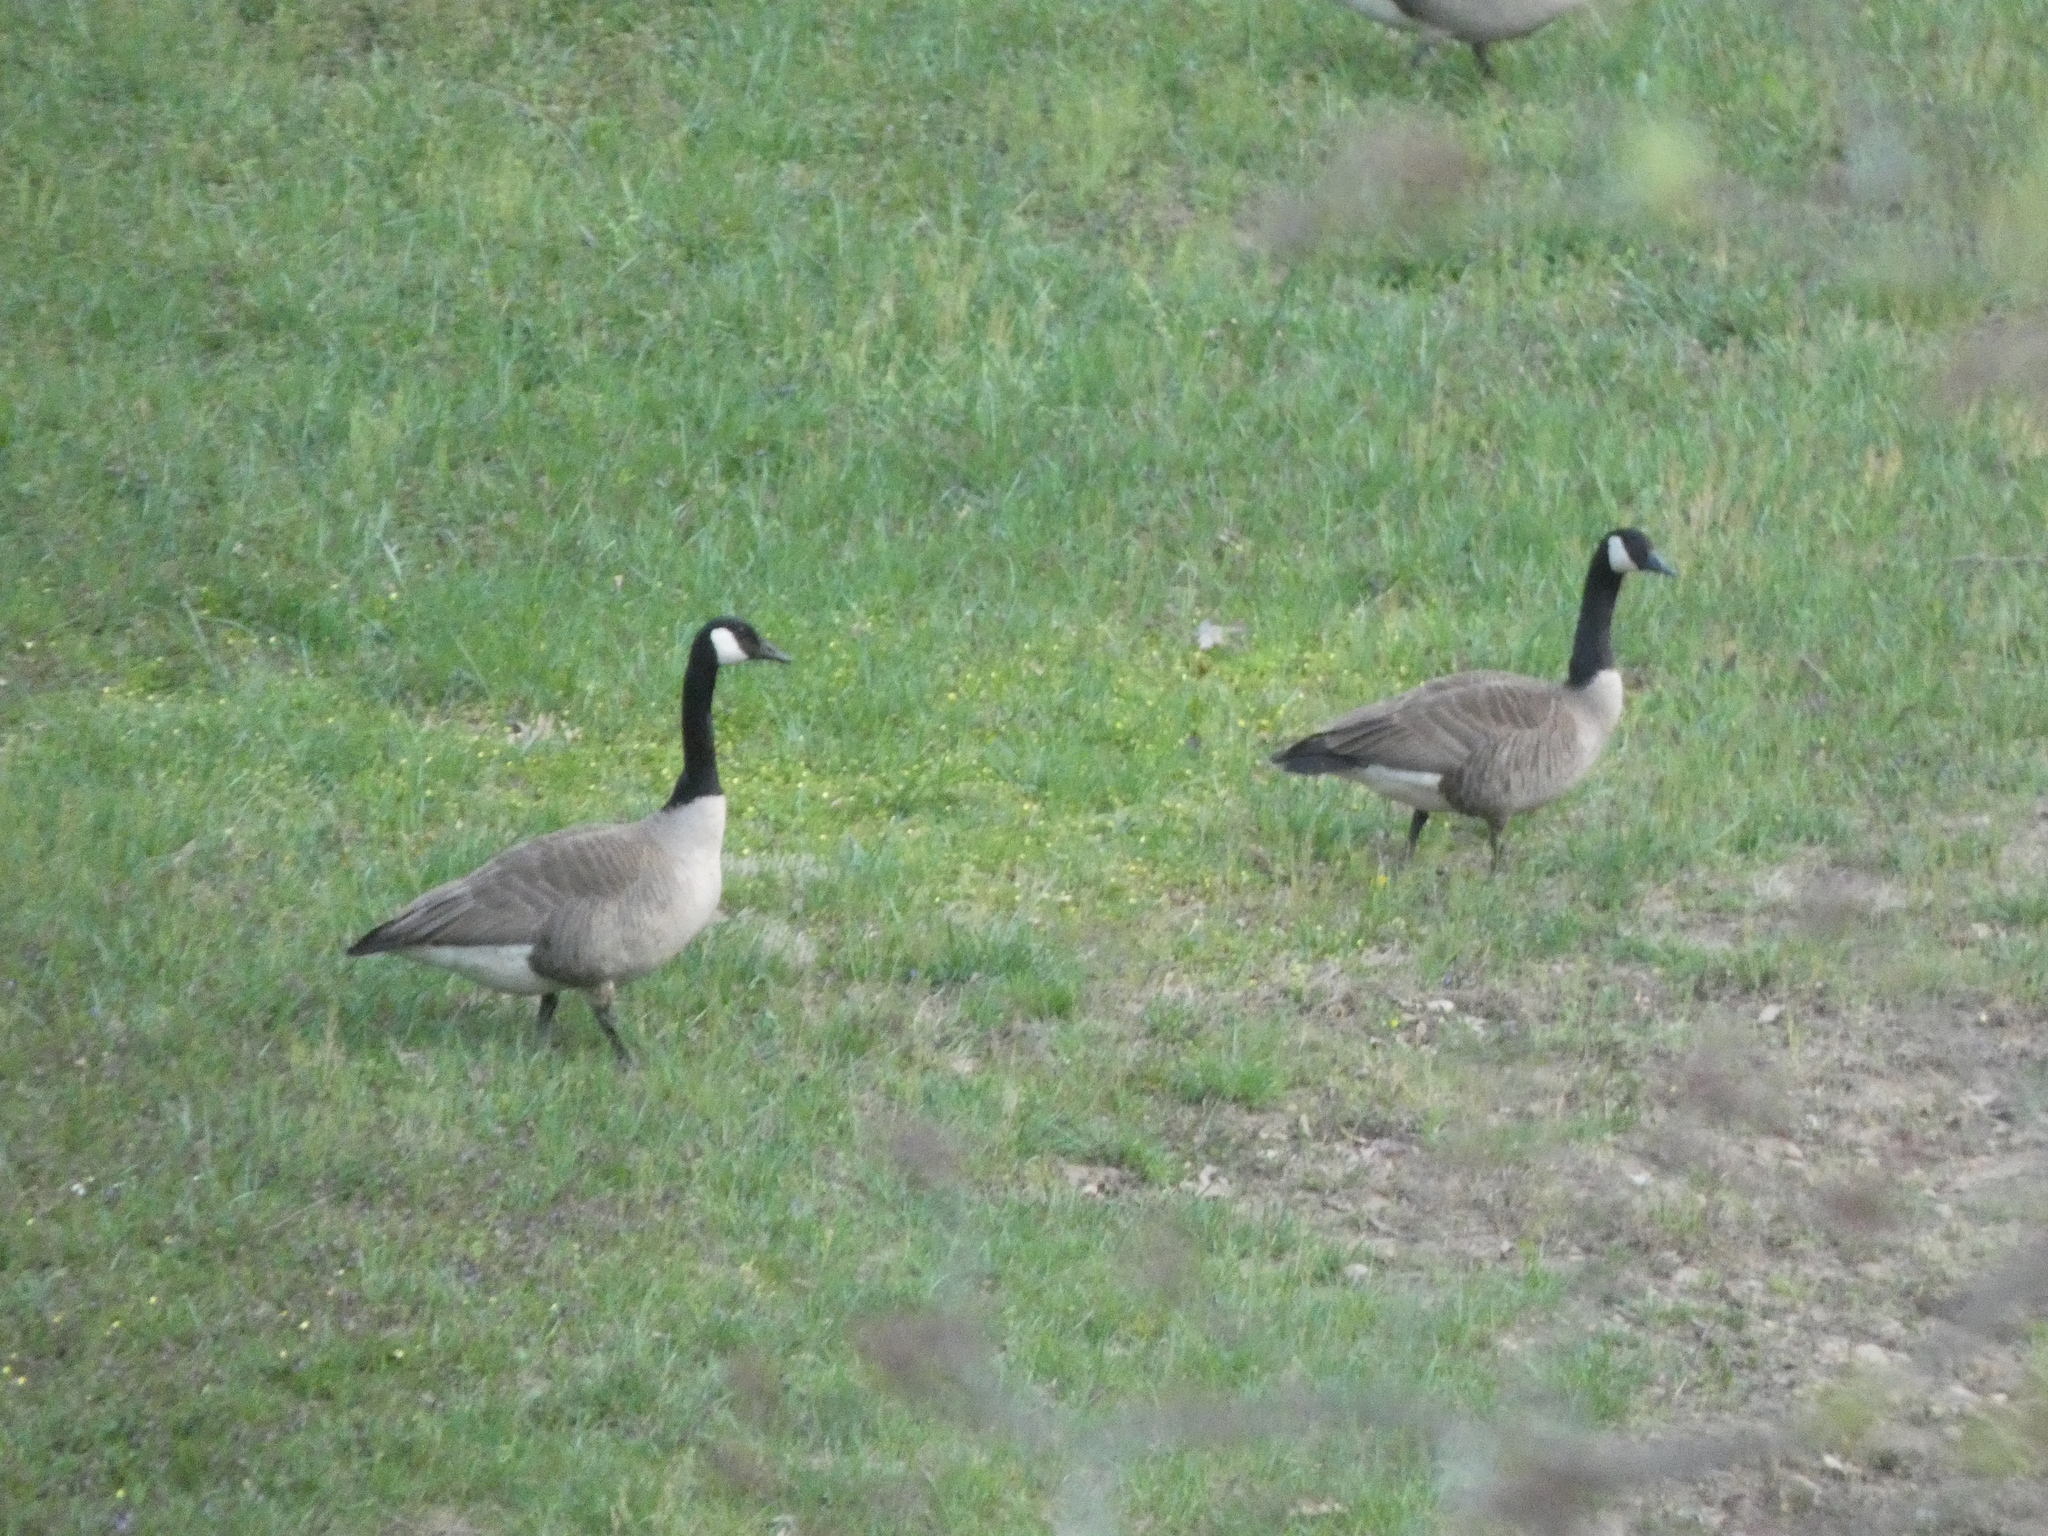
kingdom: Animalia
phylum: Chordata
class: Aves
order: Anseriformes
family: Anatidae
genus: Branta
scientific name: Branta canadensis
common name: Canada goose
